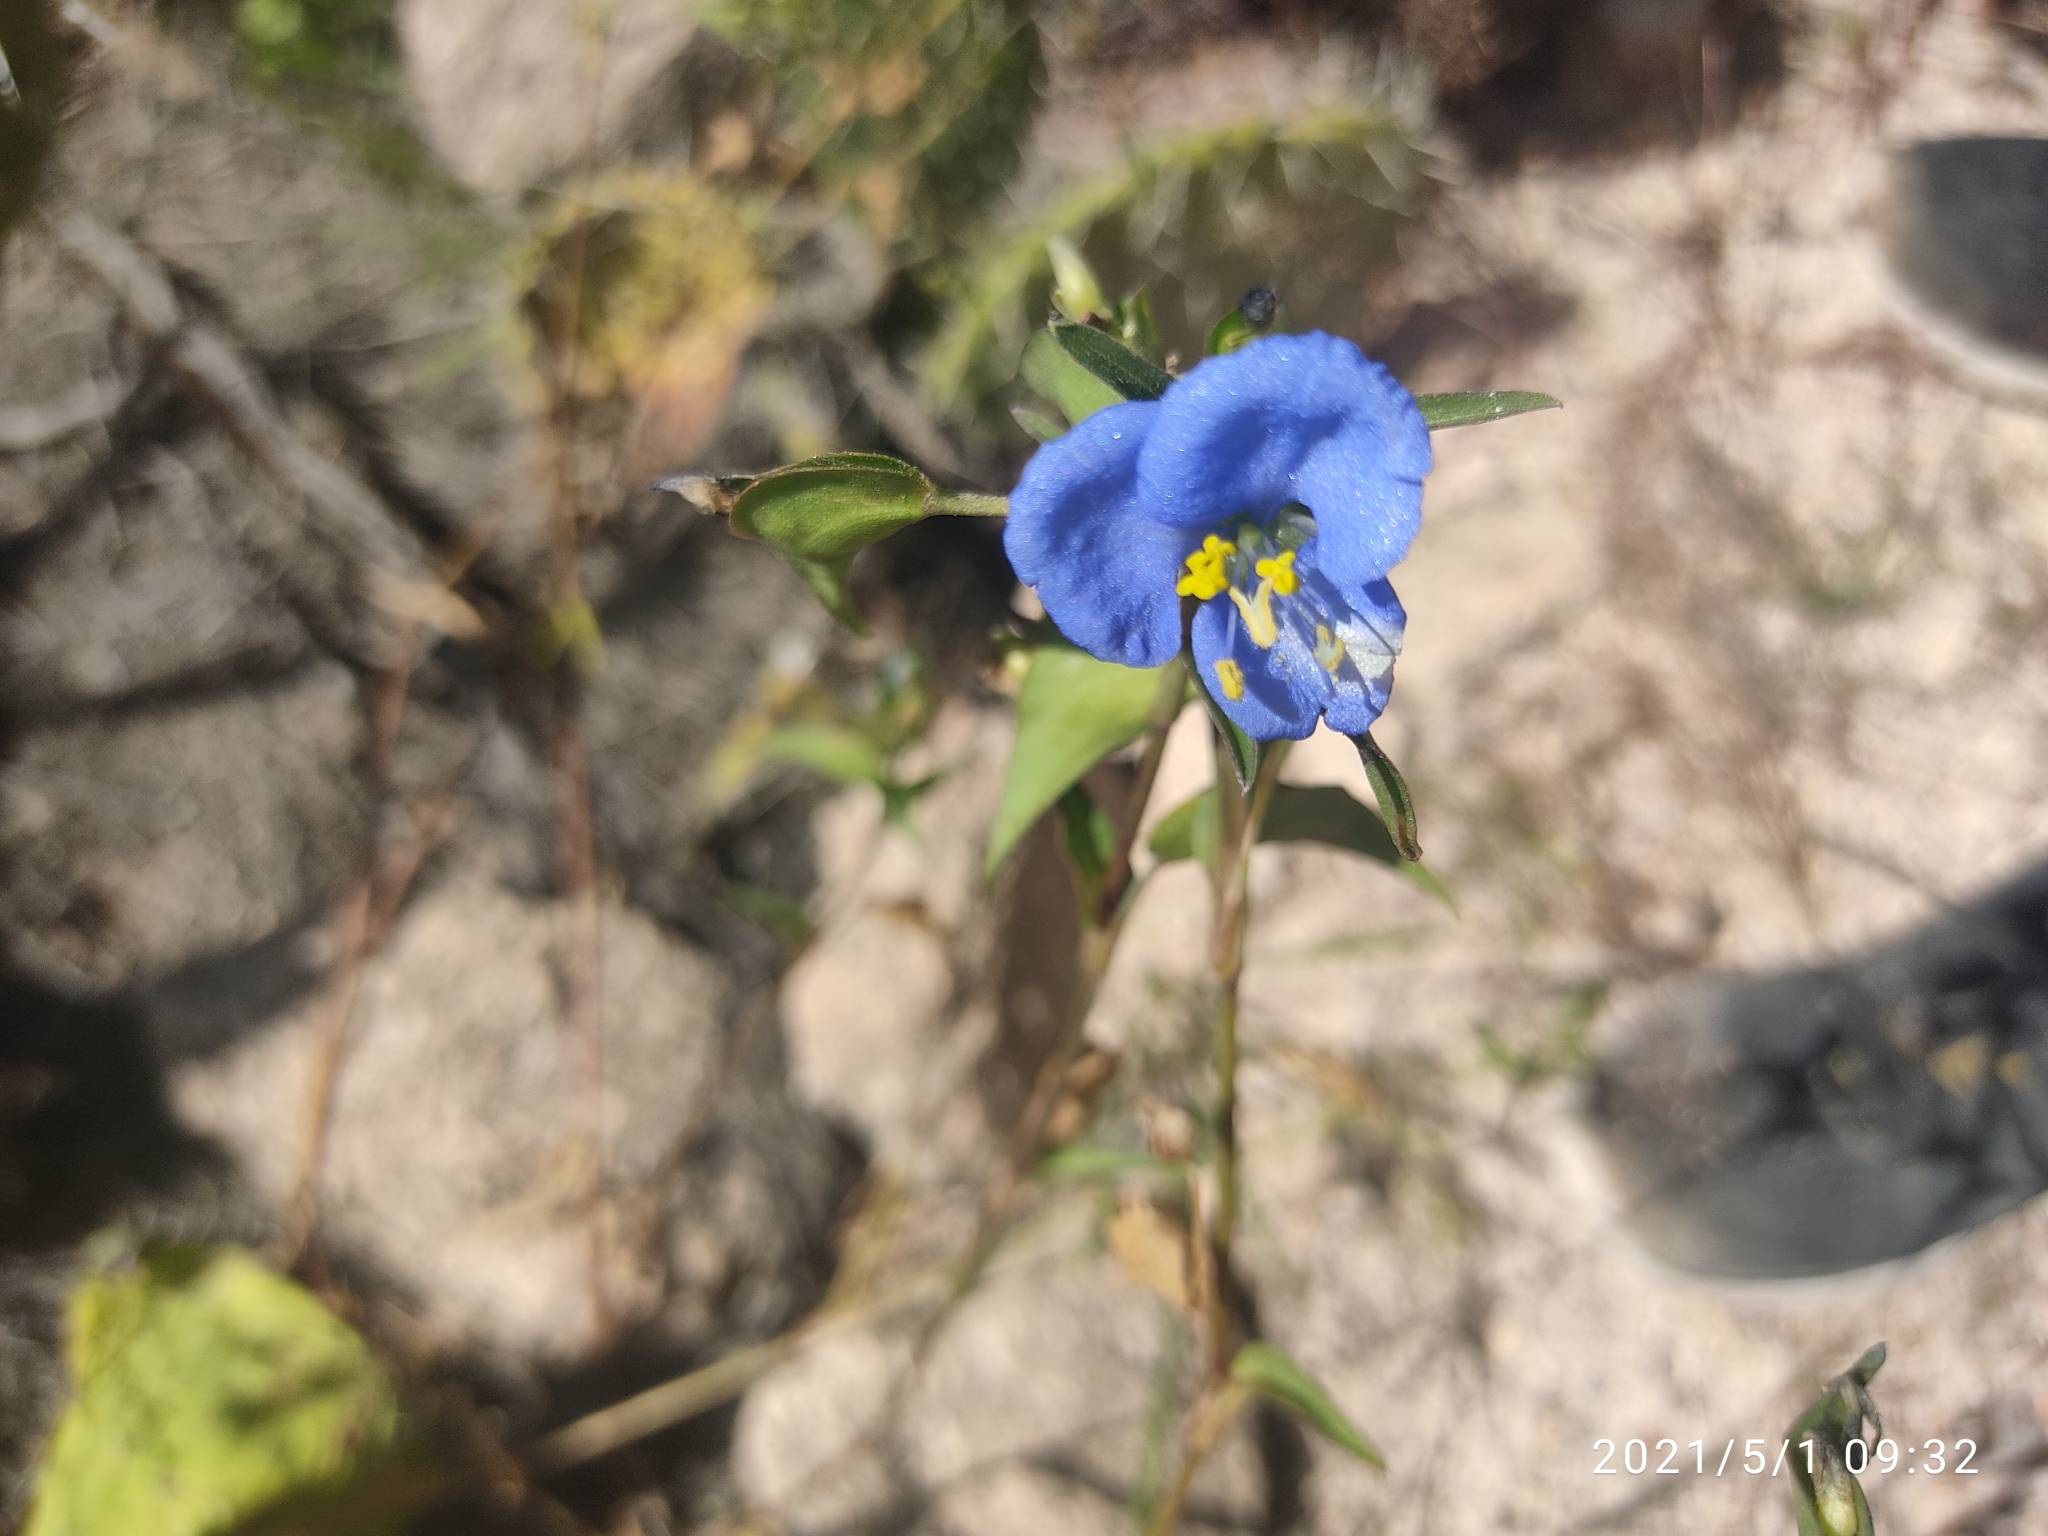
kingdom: Plantae
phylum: Tracheophyta
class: Liliopsida
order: Commelinales
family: Commelinaceae
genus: Commelina
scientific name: Commelina tuberosa
